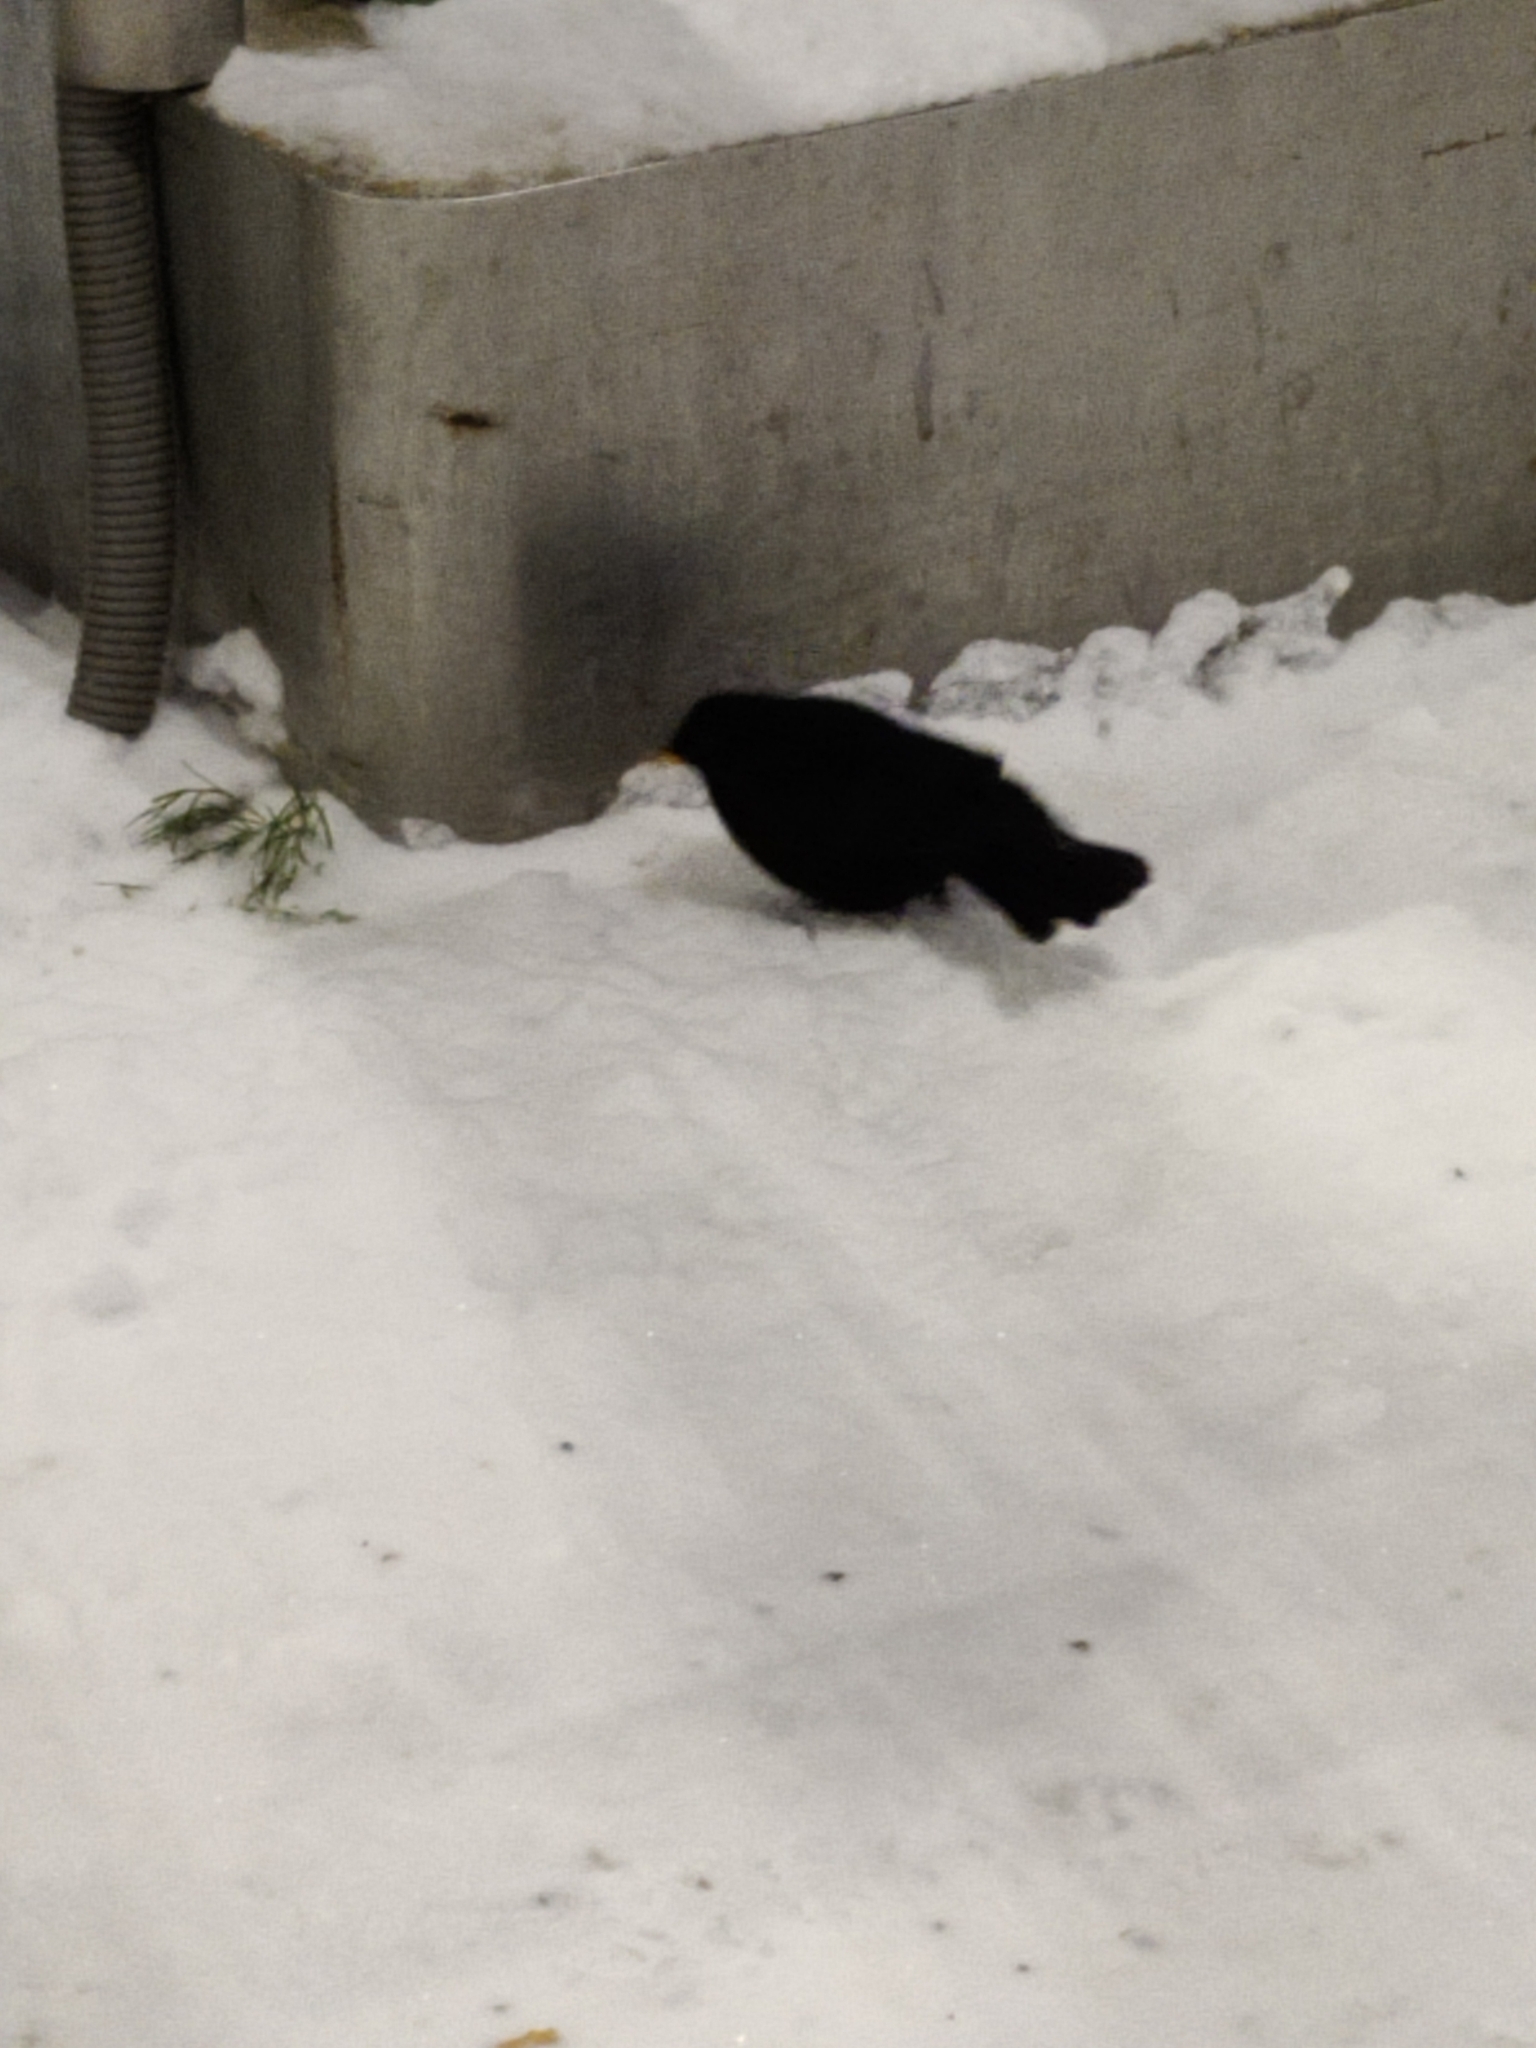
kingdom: Animalia
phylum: Chordata
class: Aves
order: Passeriformes
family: Turdidae
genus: Turdus
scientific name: Turdus merula
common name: Common blackbird
